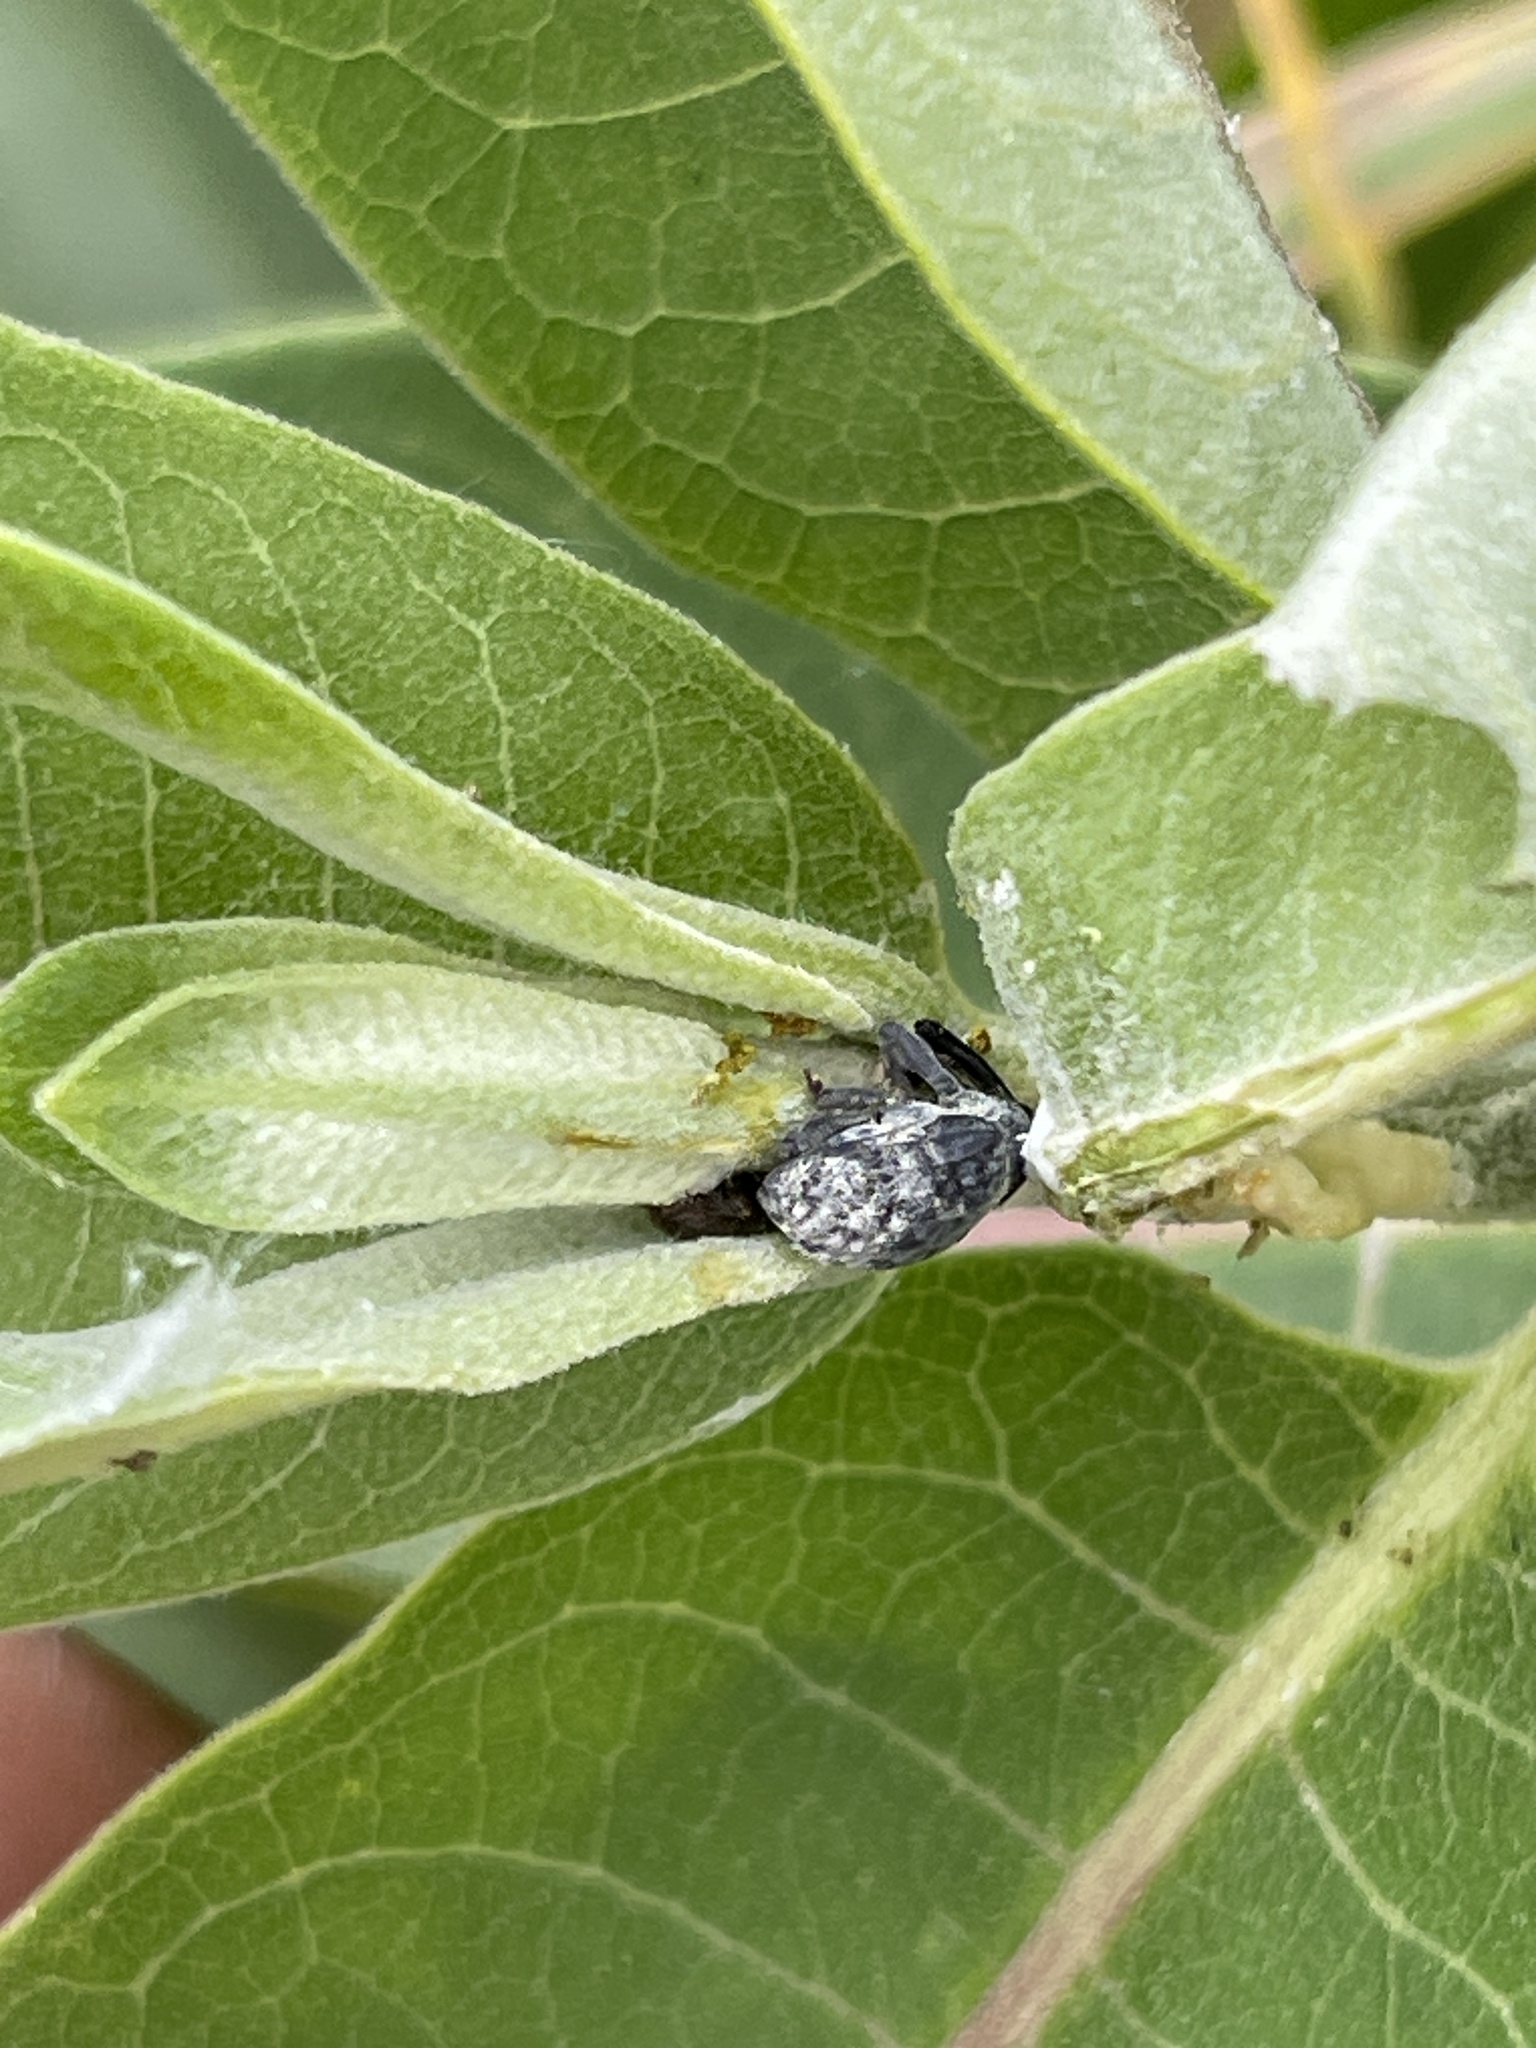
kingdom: Animalia
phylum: Arthropoda
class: Insecta
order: Coleoptera
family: Curculionidae
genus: Rhyssomatus
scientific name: Rhyssomatus lineaticollis
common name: Milkweed stem weevil
